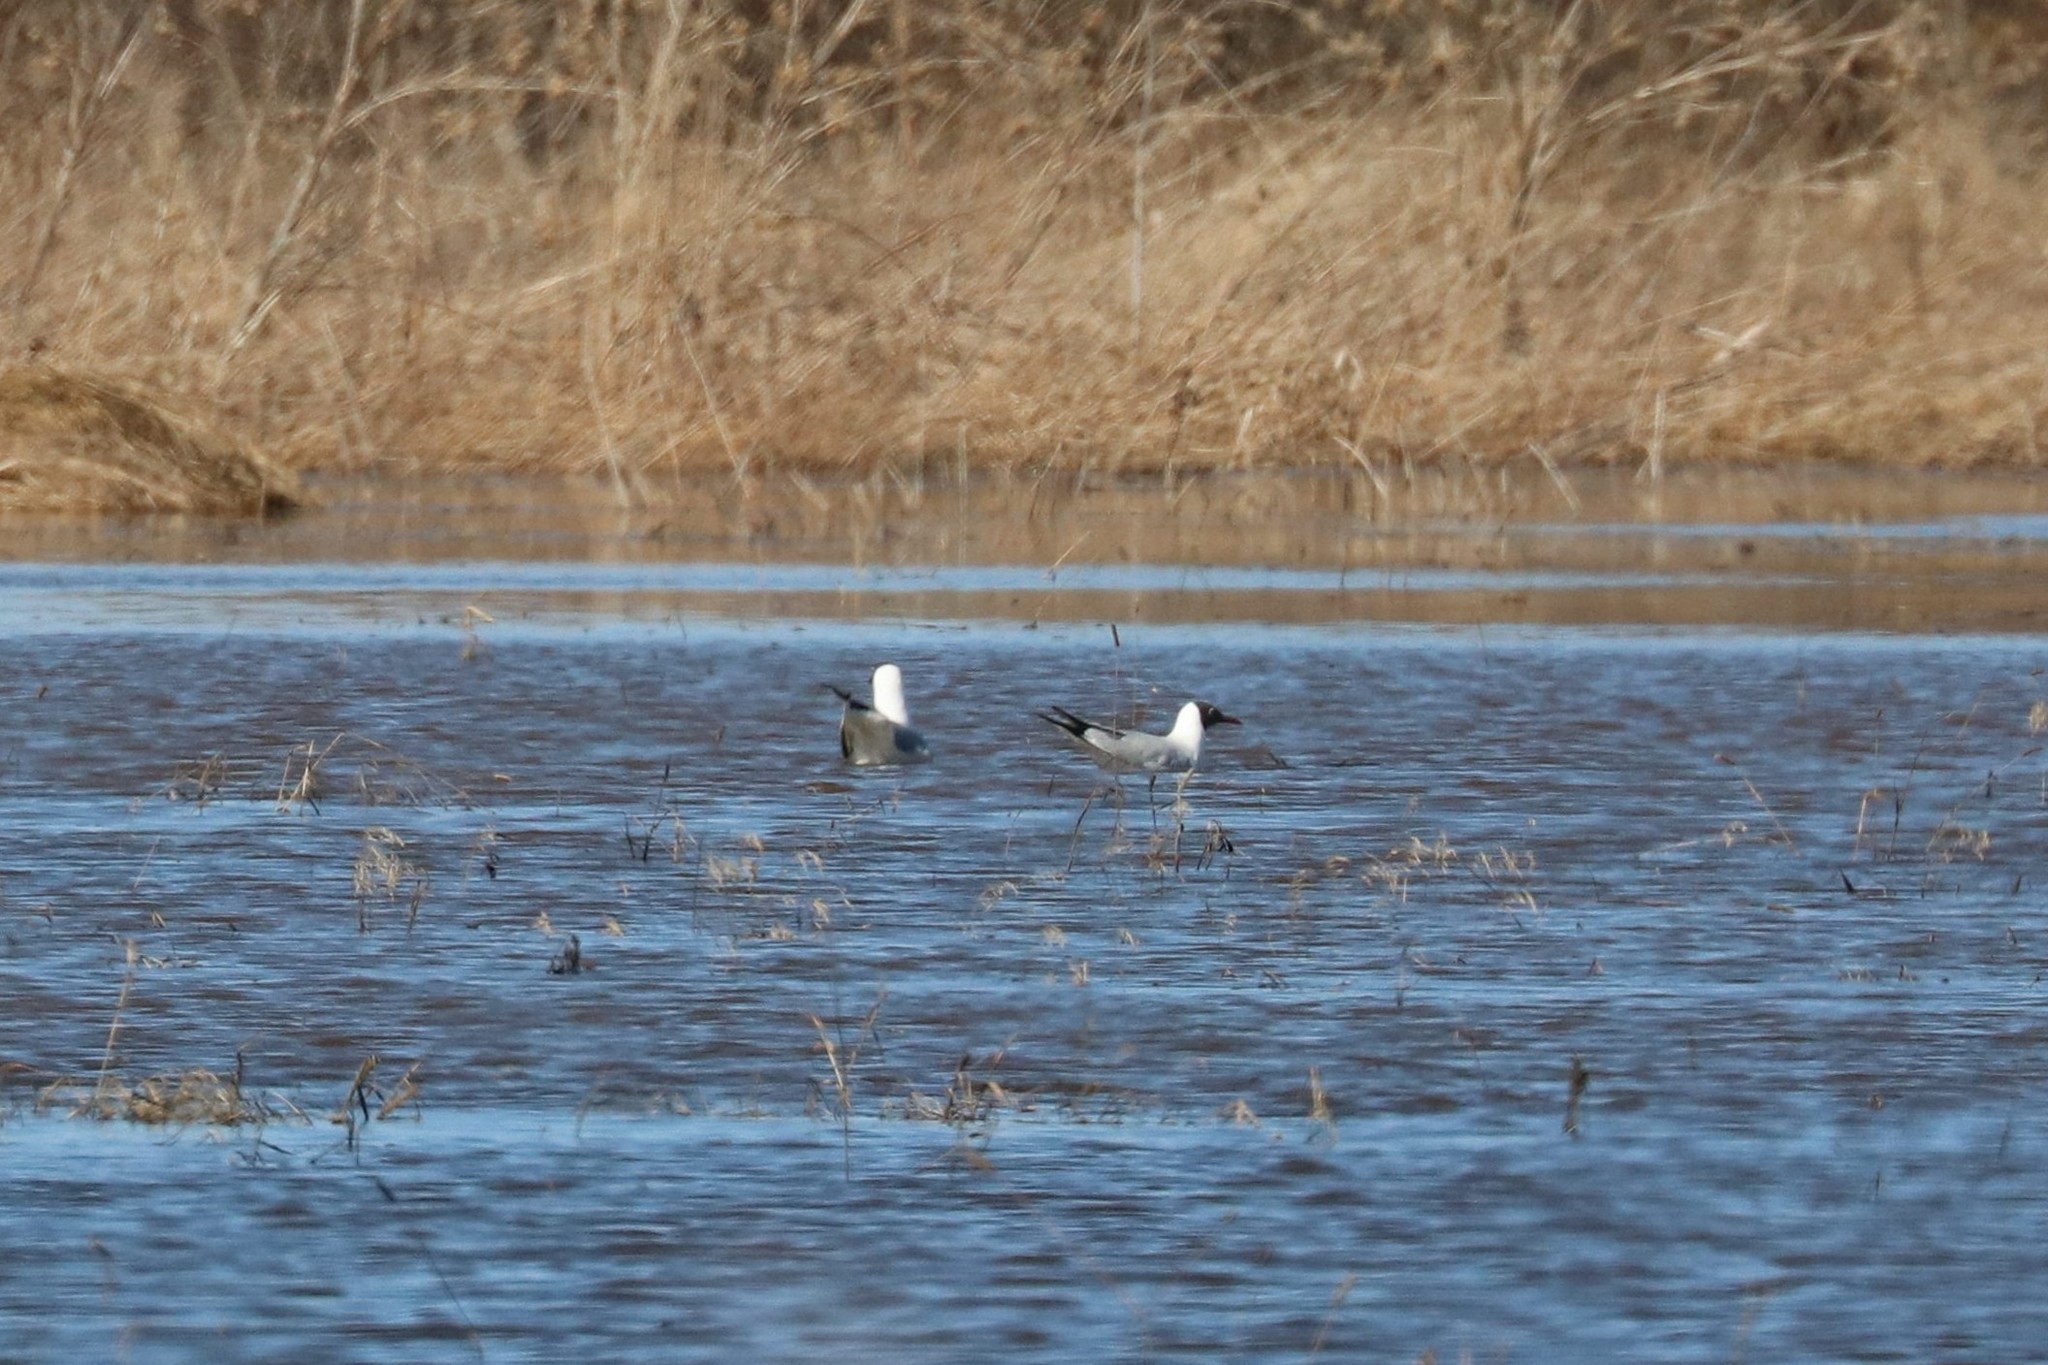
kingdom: Animalia
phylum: Chordata
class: Aves
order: Charadriiformes
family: Laridae
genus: Chroicocephalus
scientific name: Chroicocephalus ridibundus
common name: Black-headed gull
